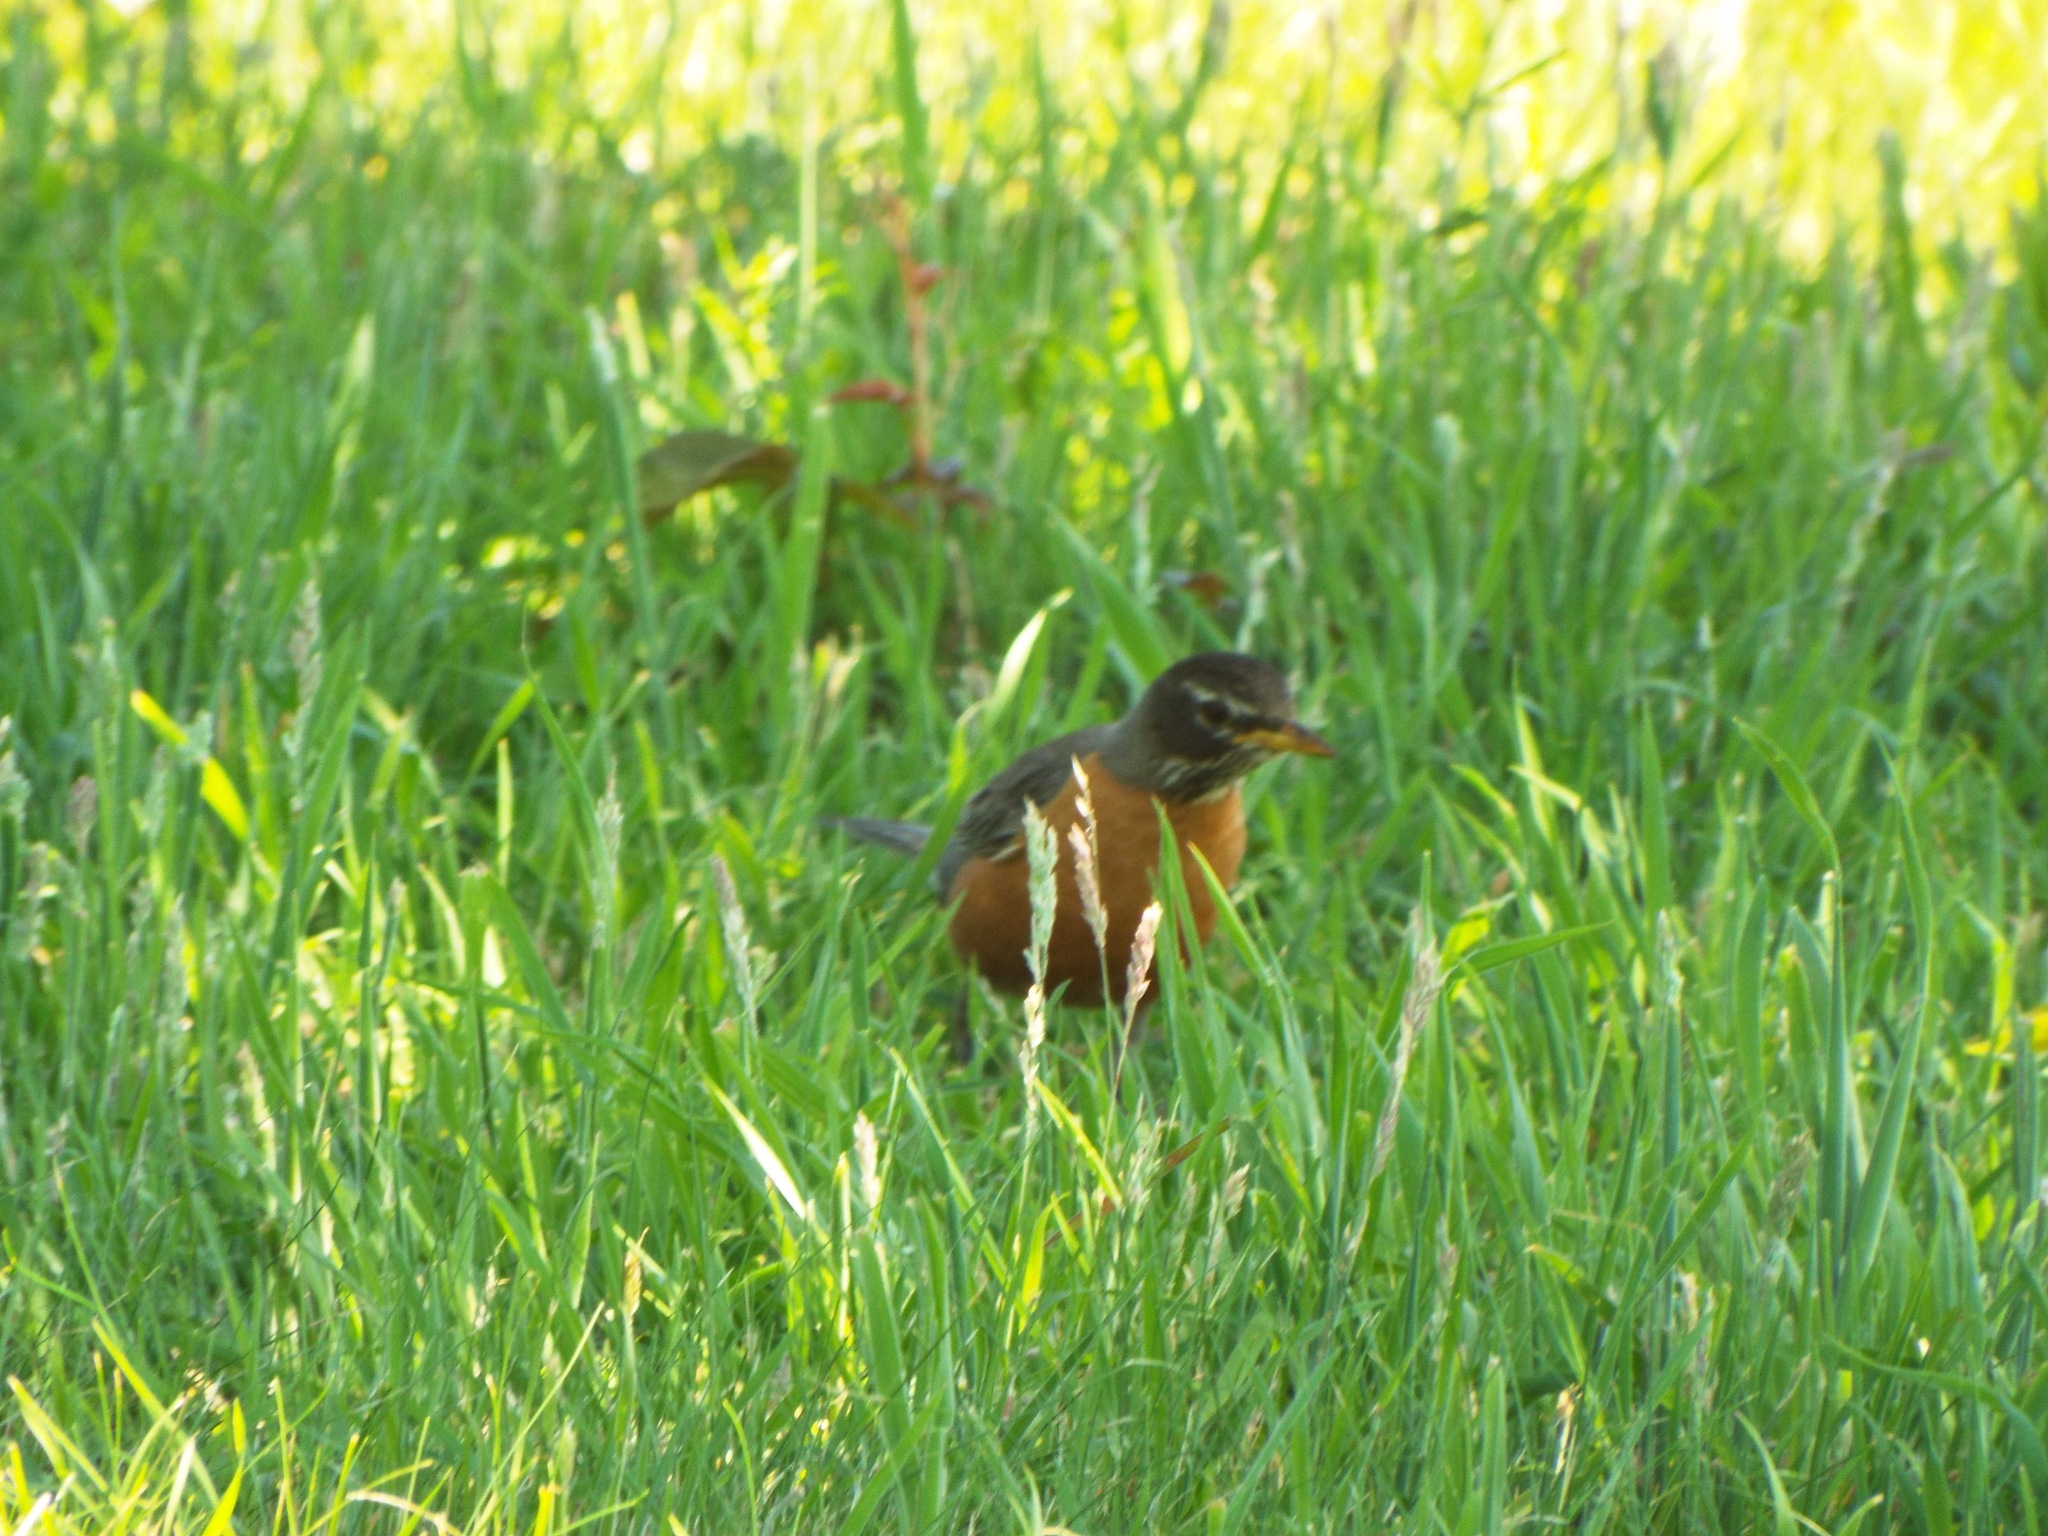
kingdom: Animalia
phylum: Chordata
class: Aves
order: Passeriformes
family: Turdidae
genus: Turdus
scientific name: Turdus migratorius
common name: American robin
